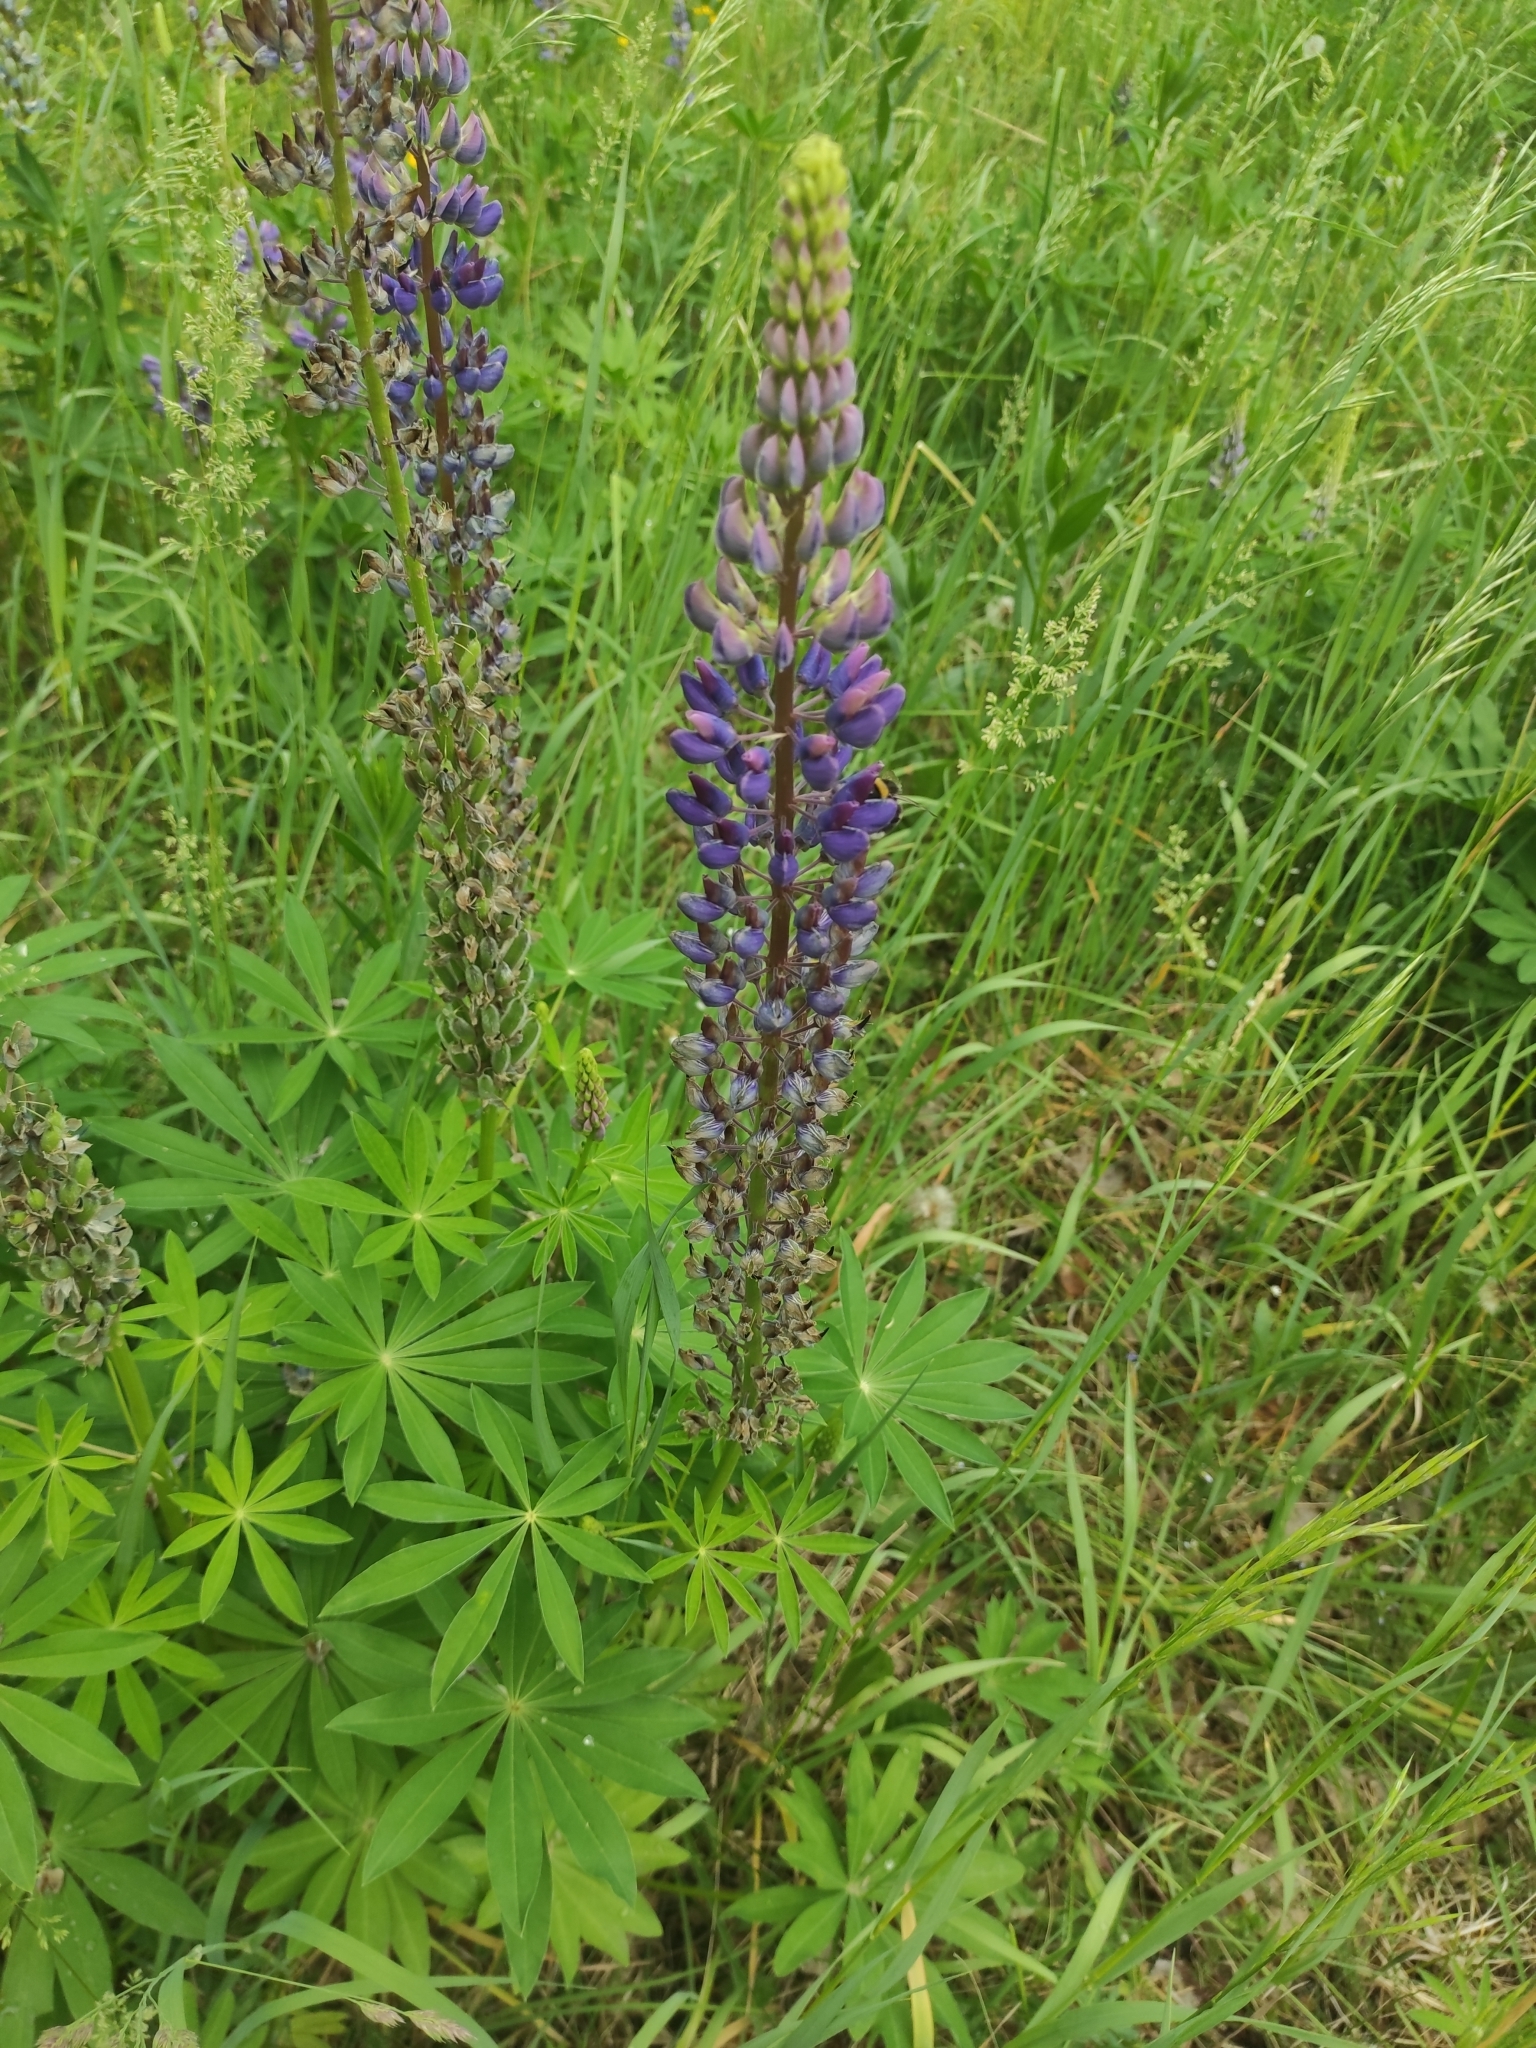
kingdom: Plantae
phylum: Tracheophyta
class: Magnoliopsida
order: Fabales
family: Fabaceae
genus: Lupinus
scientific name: Lupinus polyphyllus
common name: Garden lupin
